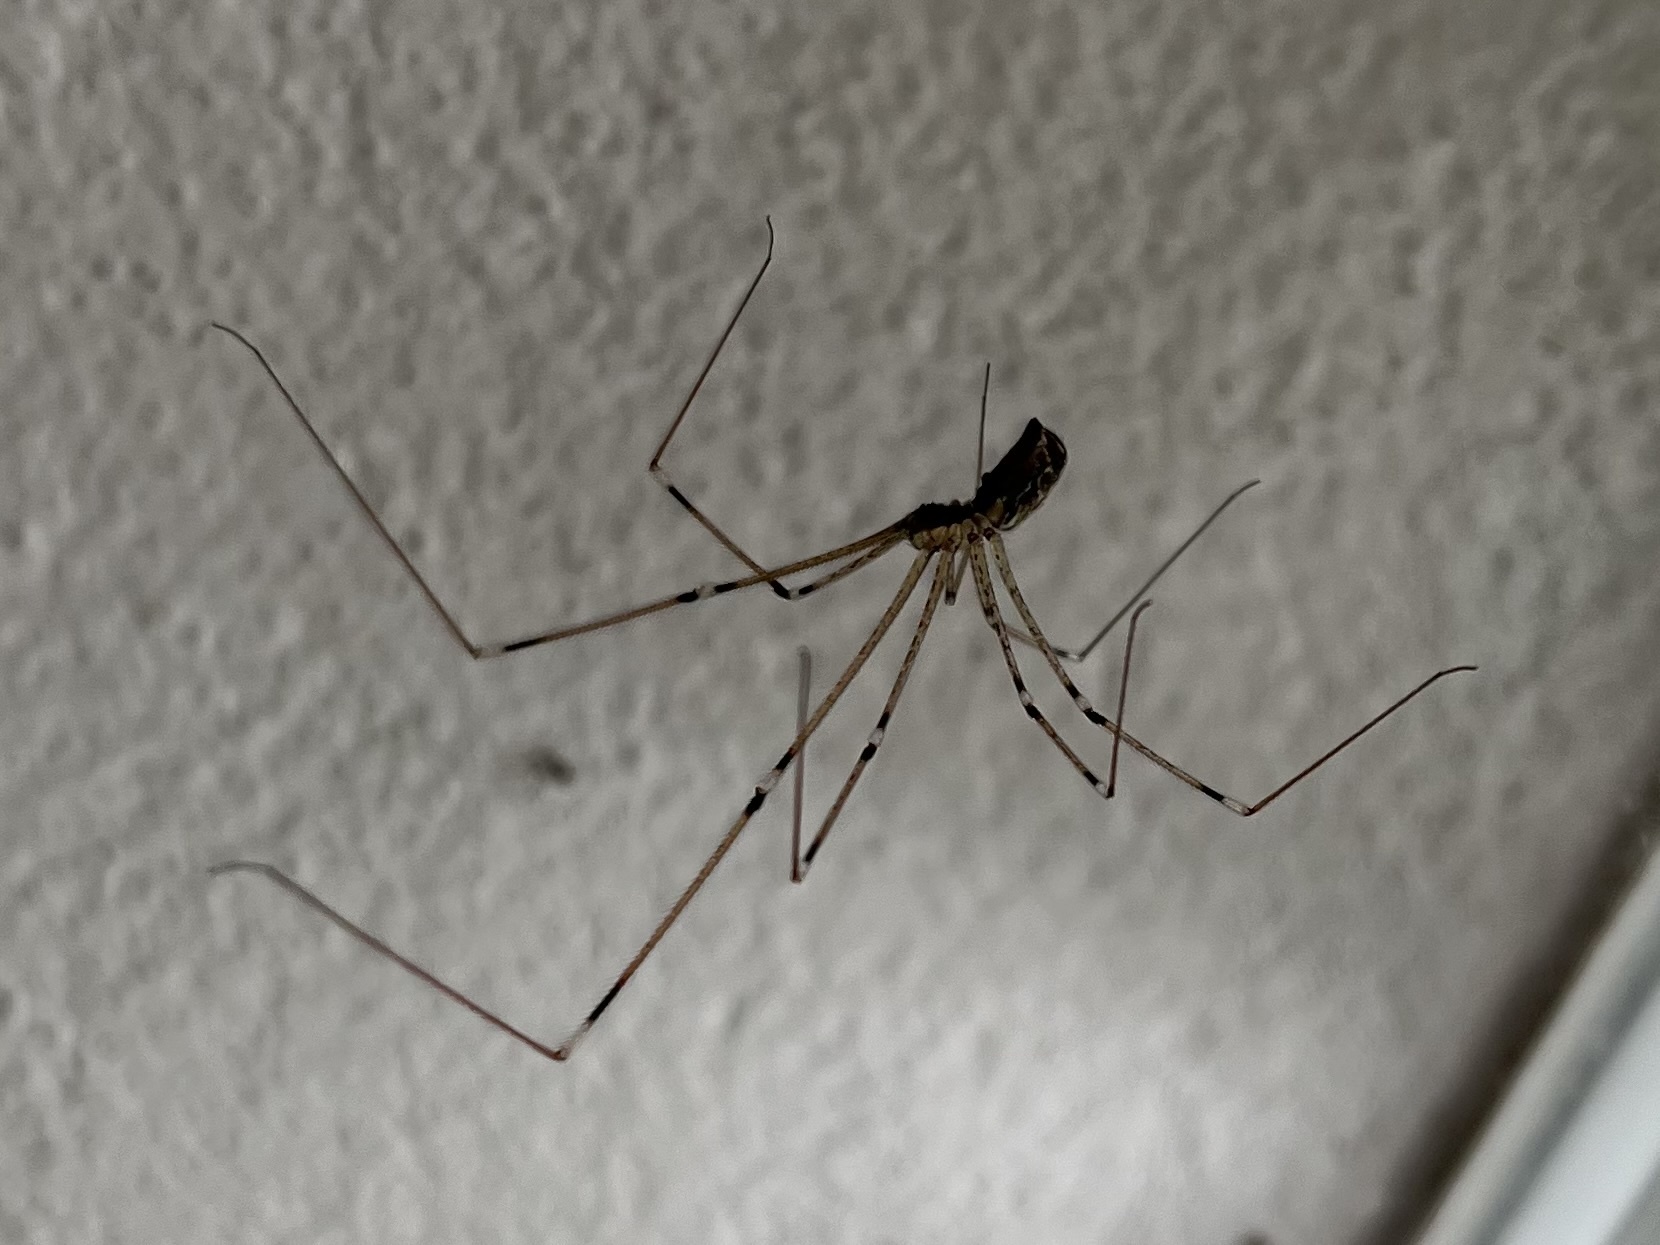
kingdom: Animalia
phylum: Arthropoda
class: Arachnida
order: Araneae
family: Pholcidae
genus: Holocnemus
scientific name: Holocnemus pluchei
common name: Marbled cellar spider
